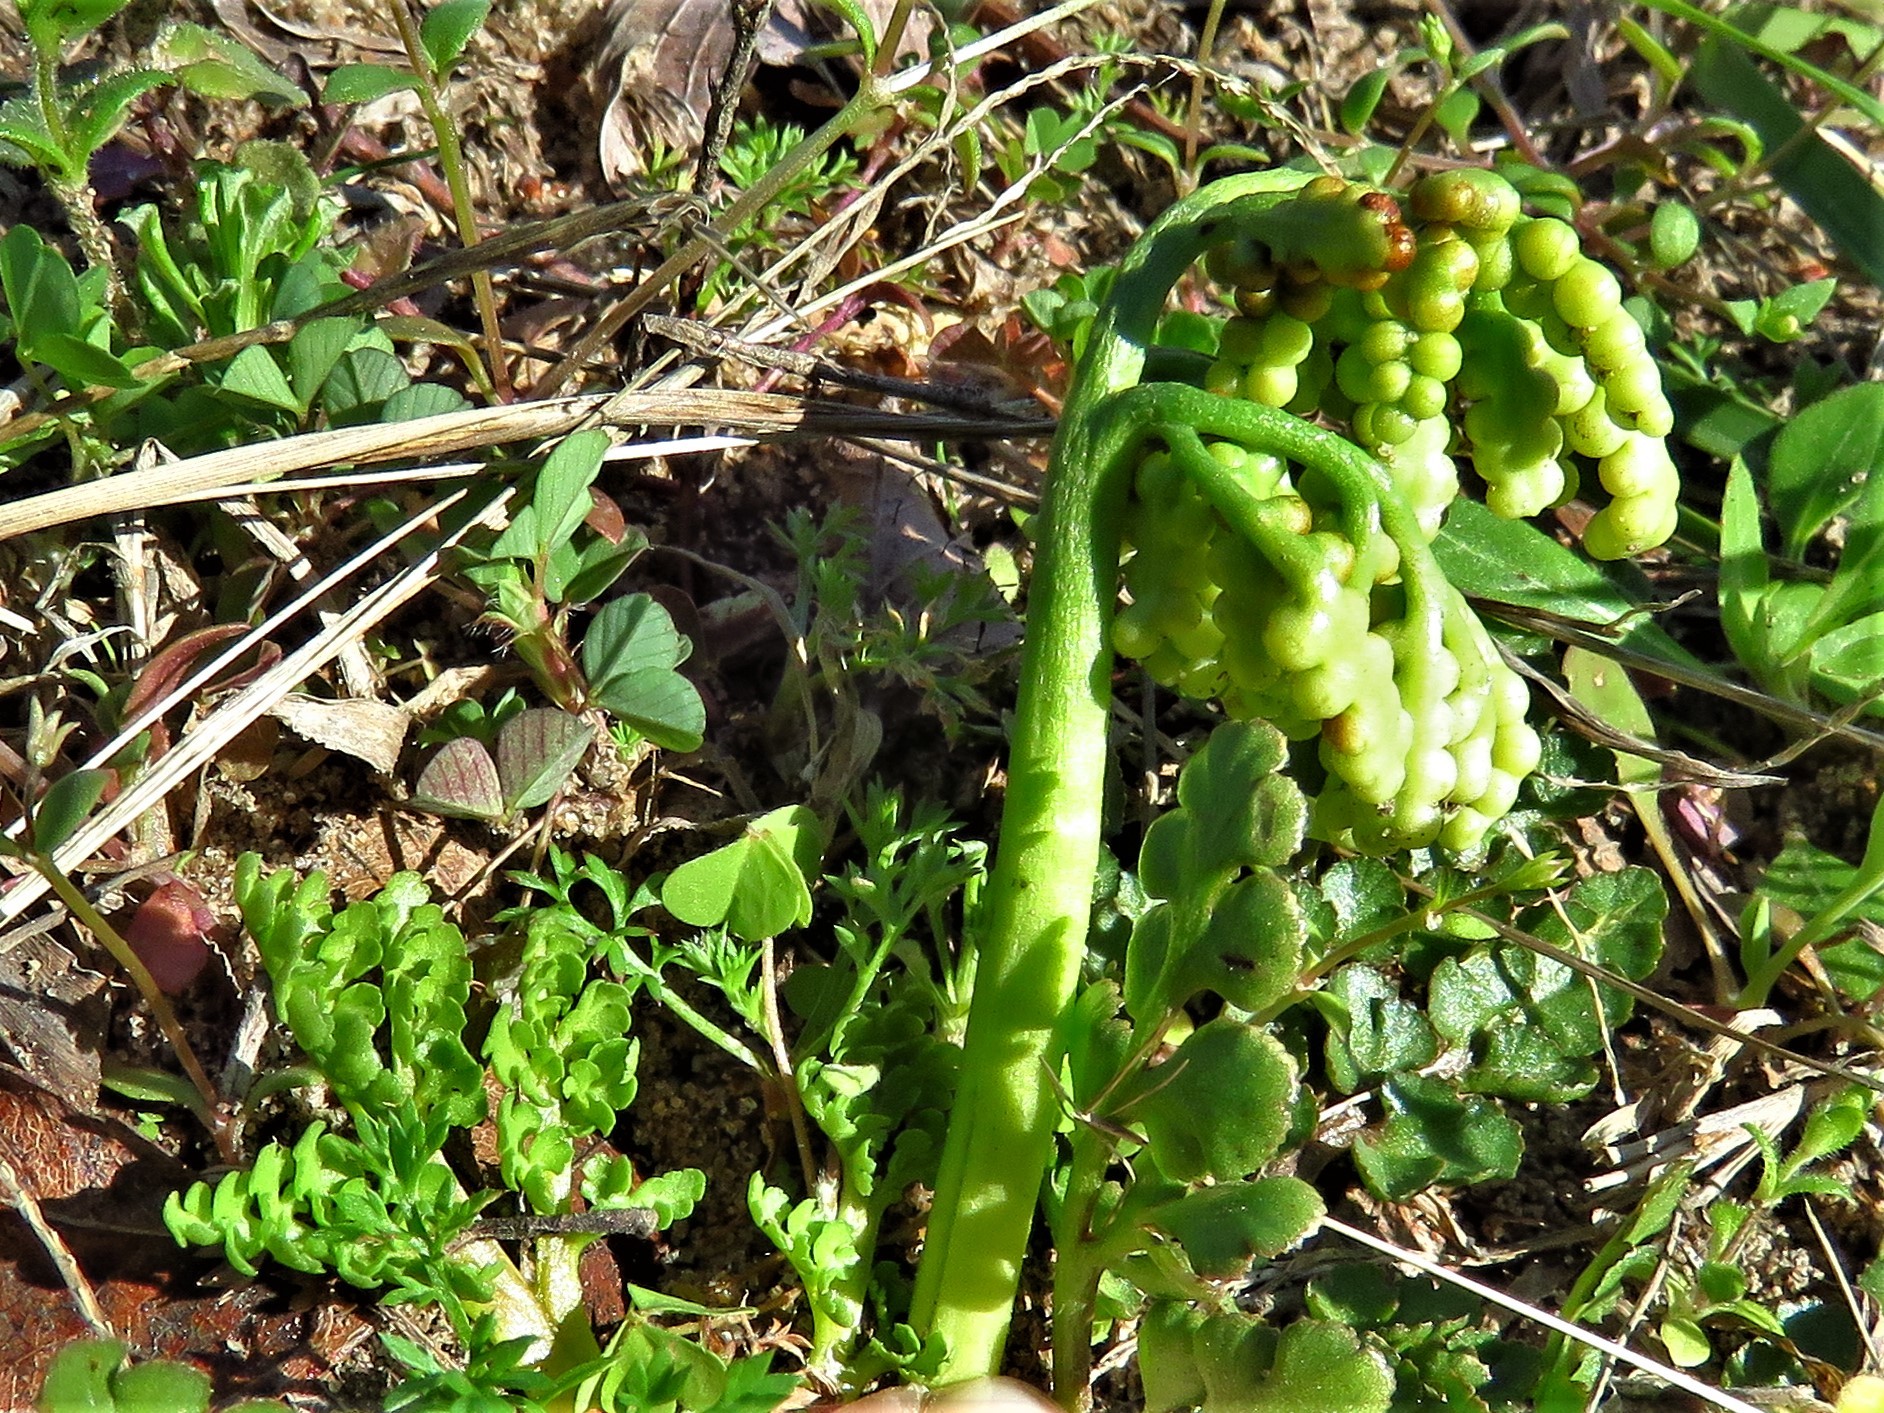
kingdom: Plantae
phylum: Tracheophyta
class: Polypodiopsida
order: Ophioglossales
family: Ophioglossaceae
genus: Sceptridium
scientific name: Sceptridium lunarioides
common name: Prostrate grapefern
